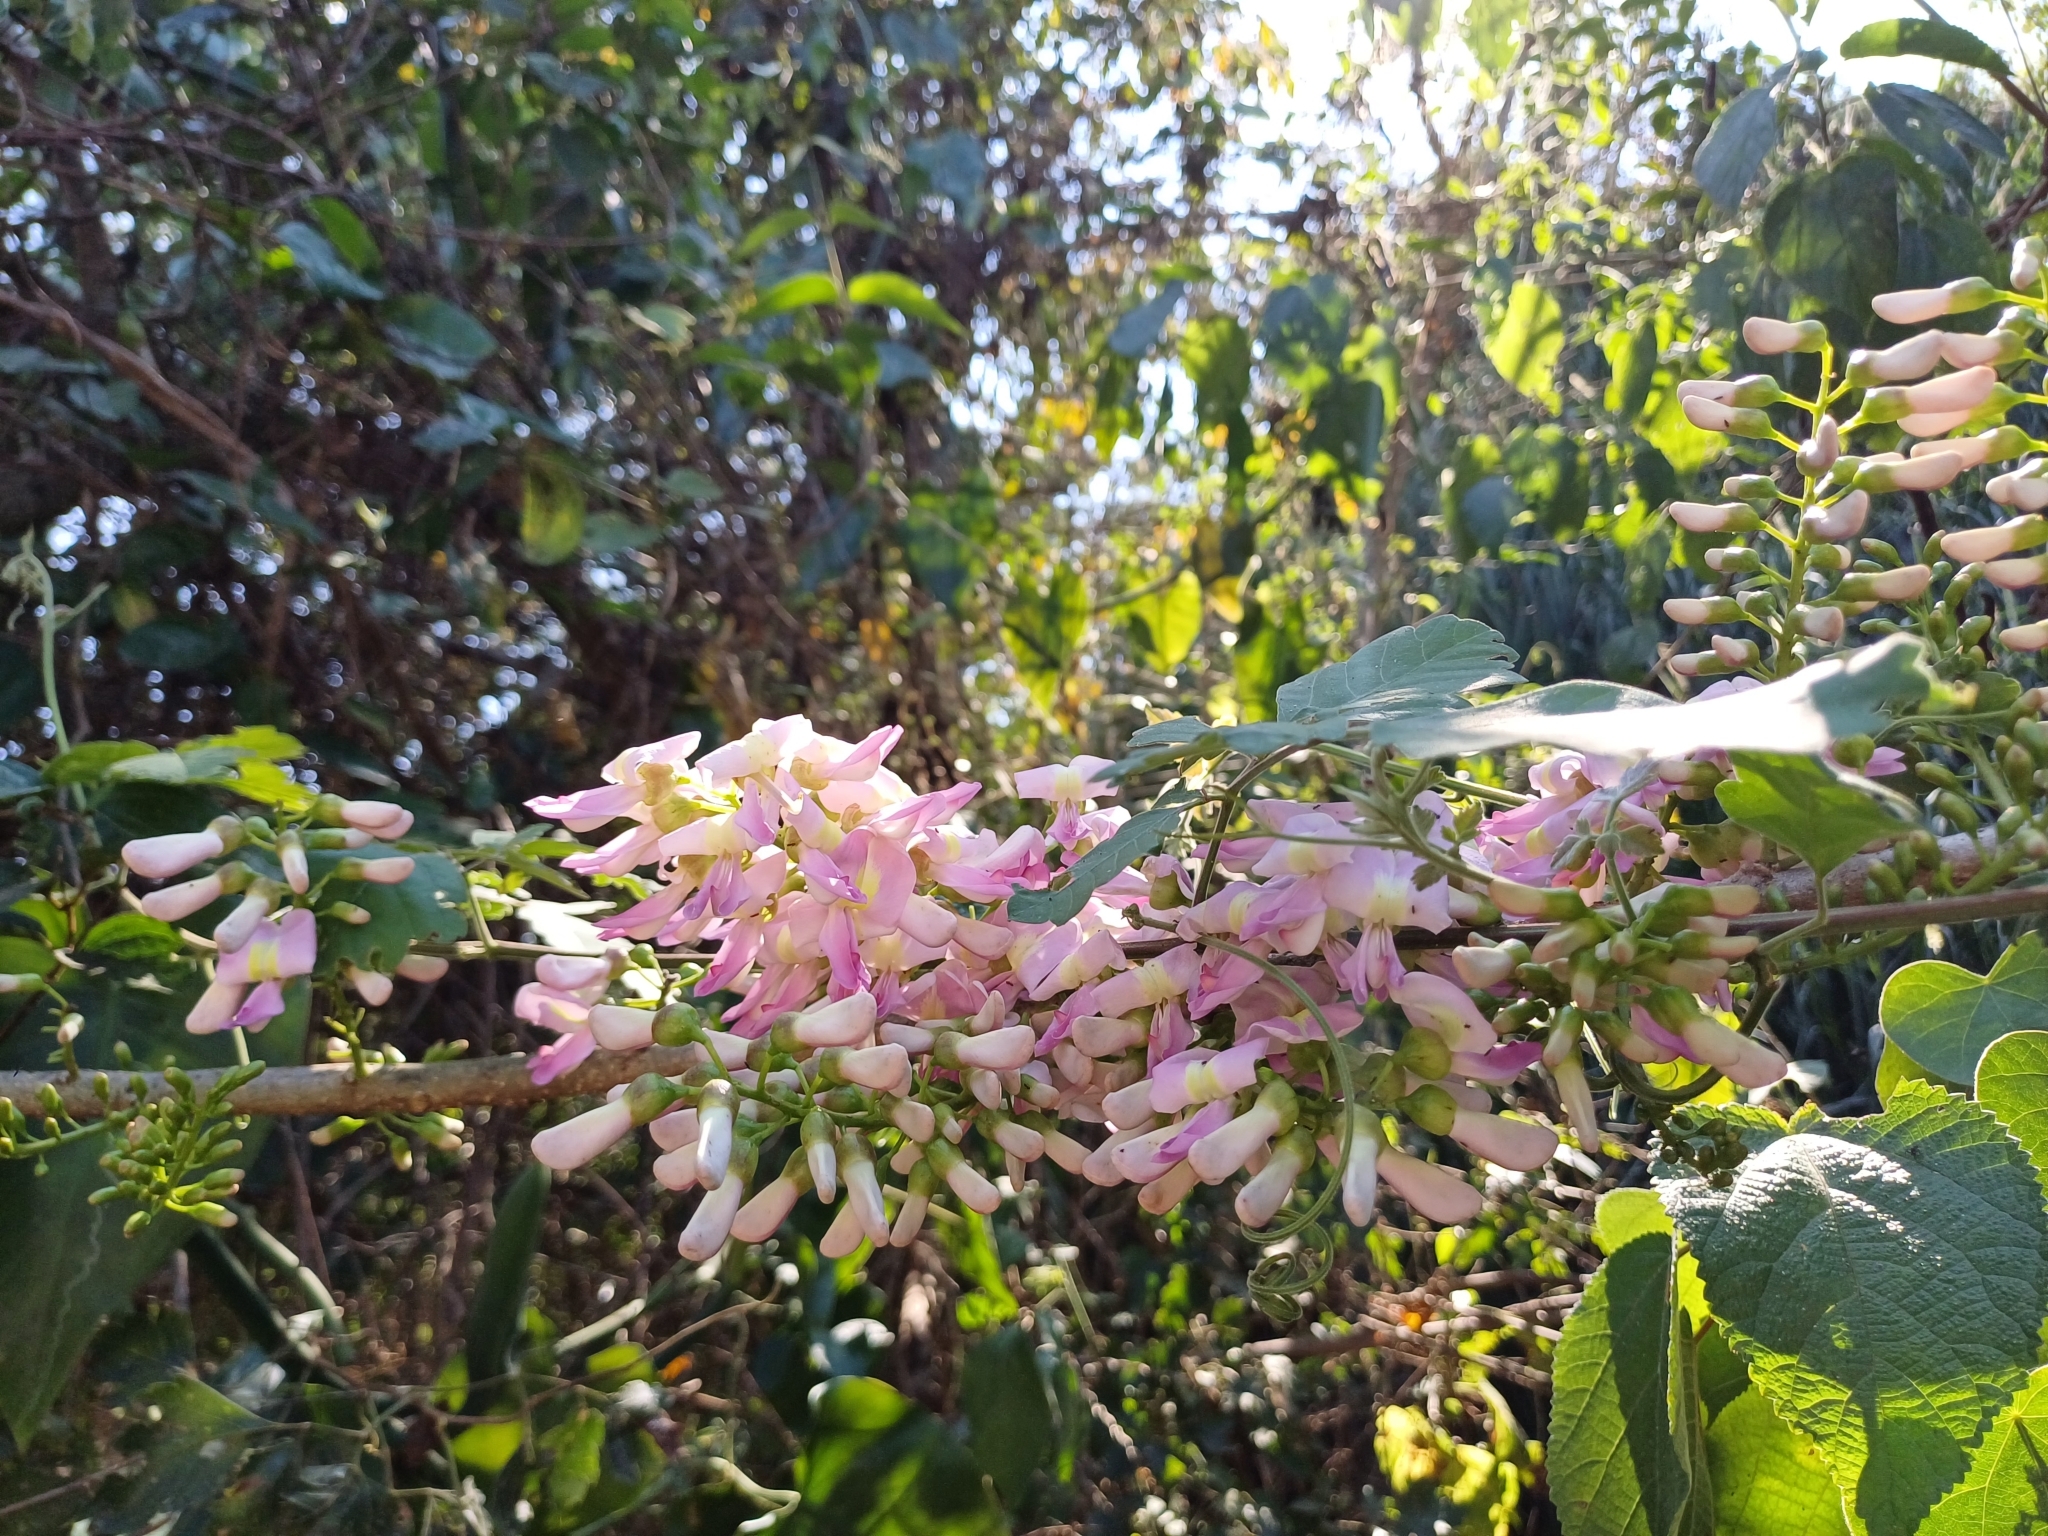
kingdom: Plantae
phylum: Tracheophyta
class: Magnoliopsida
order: Fabales
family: Fabaceae
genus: Gliricidia
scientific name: Gliricidia sepium
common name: Quickstick
